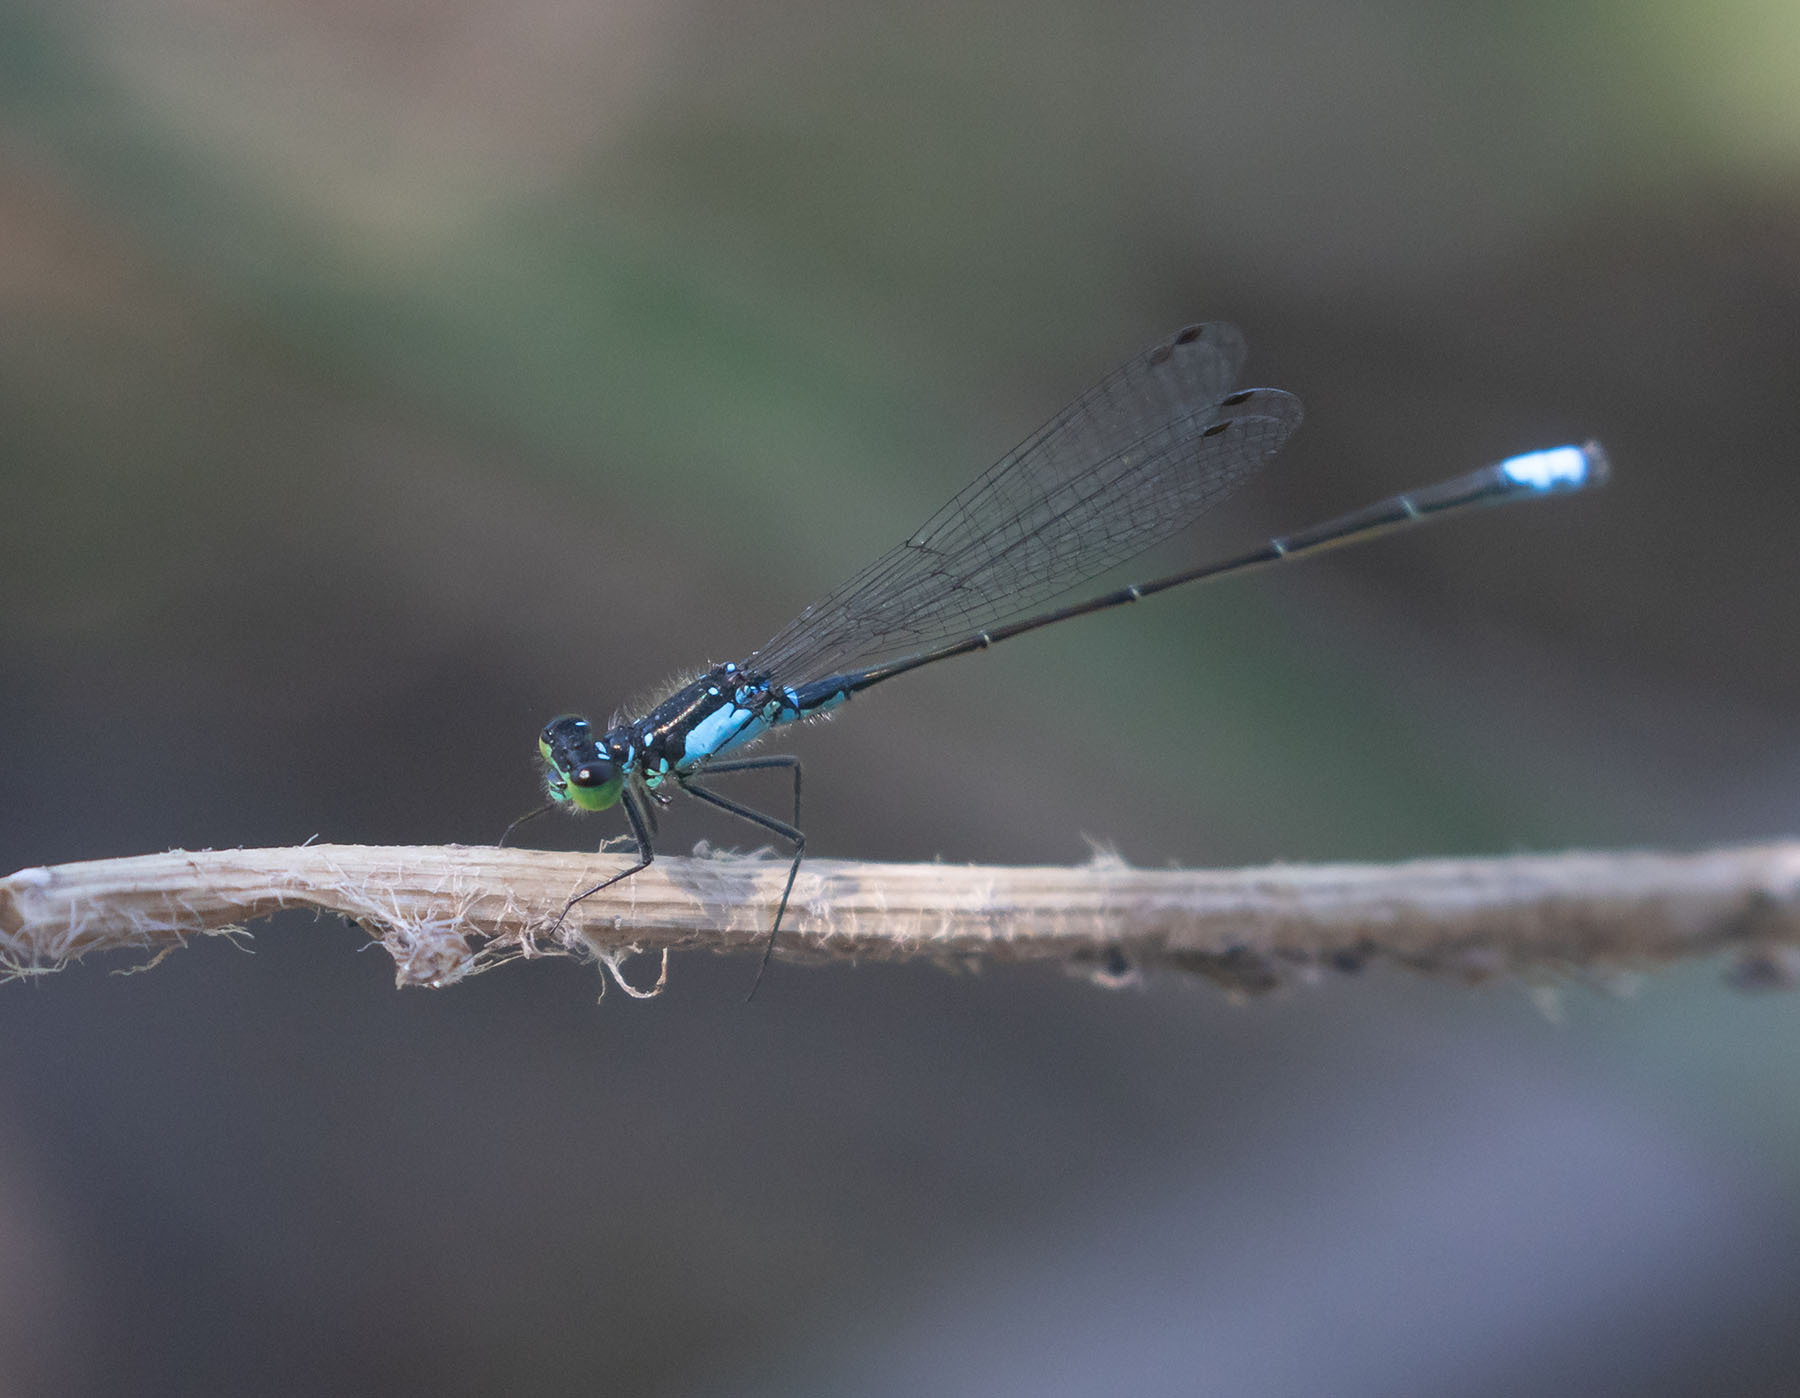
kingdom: Animalia
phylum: Arthropoda
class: Insecta
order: Odonata
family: Coenagrionidae
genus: Ischnura
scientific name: Ischnura cervula
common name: Pacific forktail
